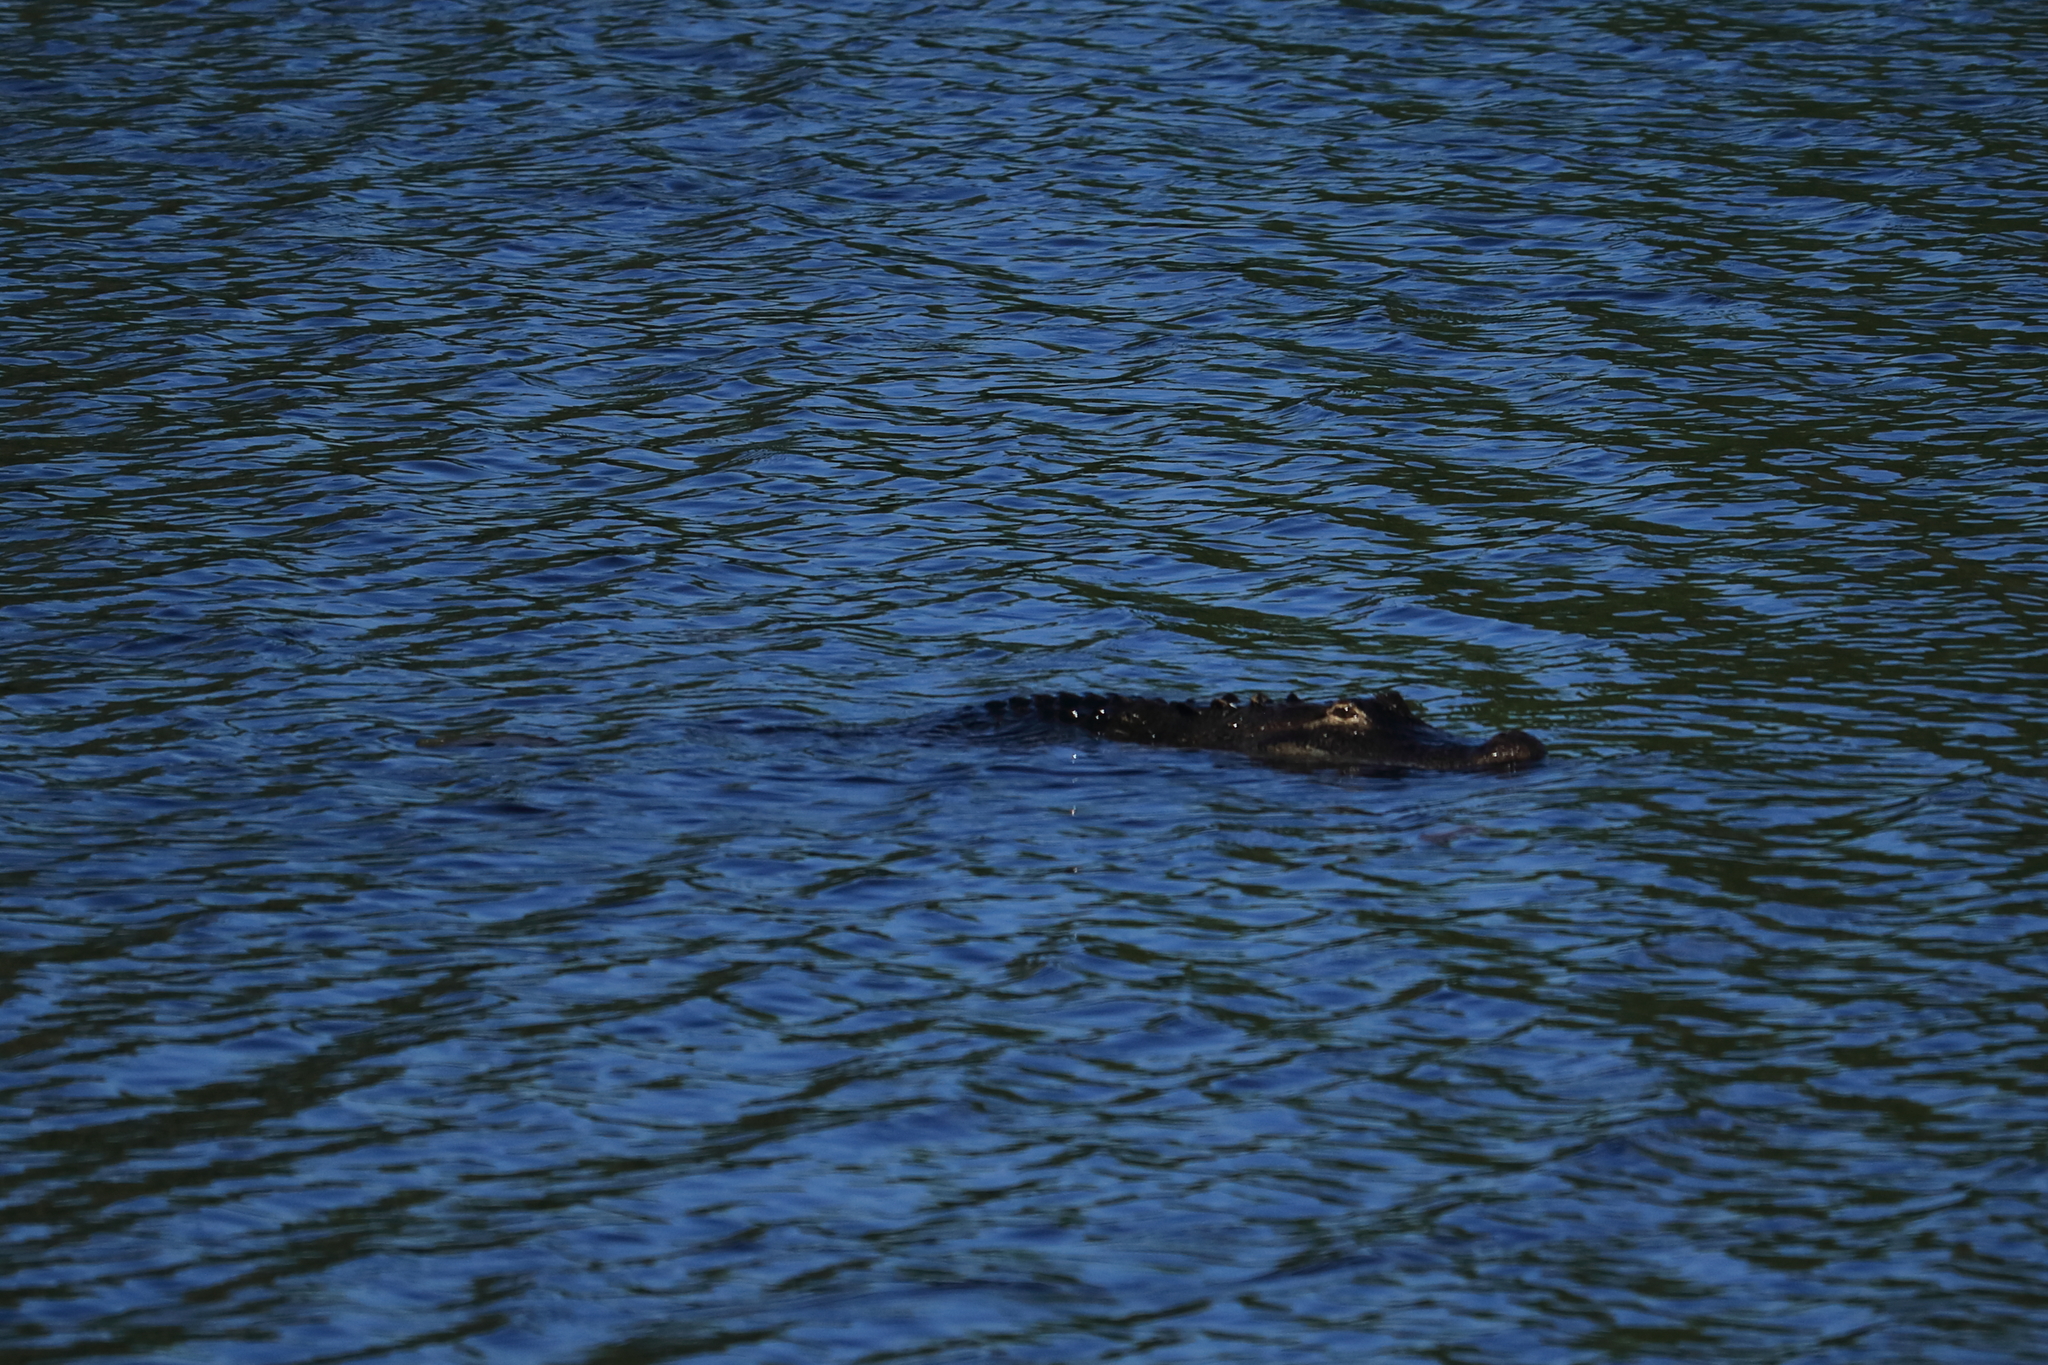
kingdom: Animalia
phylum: Chordata
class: Crocodylia
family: Alligatoridae
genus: Alligator
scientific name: Alligator mississippiensis
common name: American alligator
